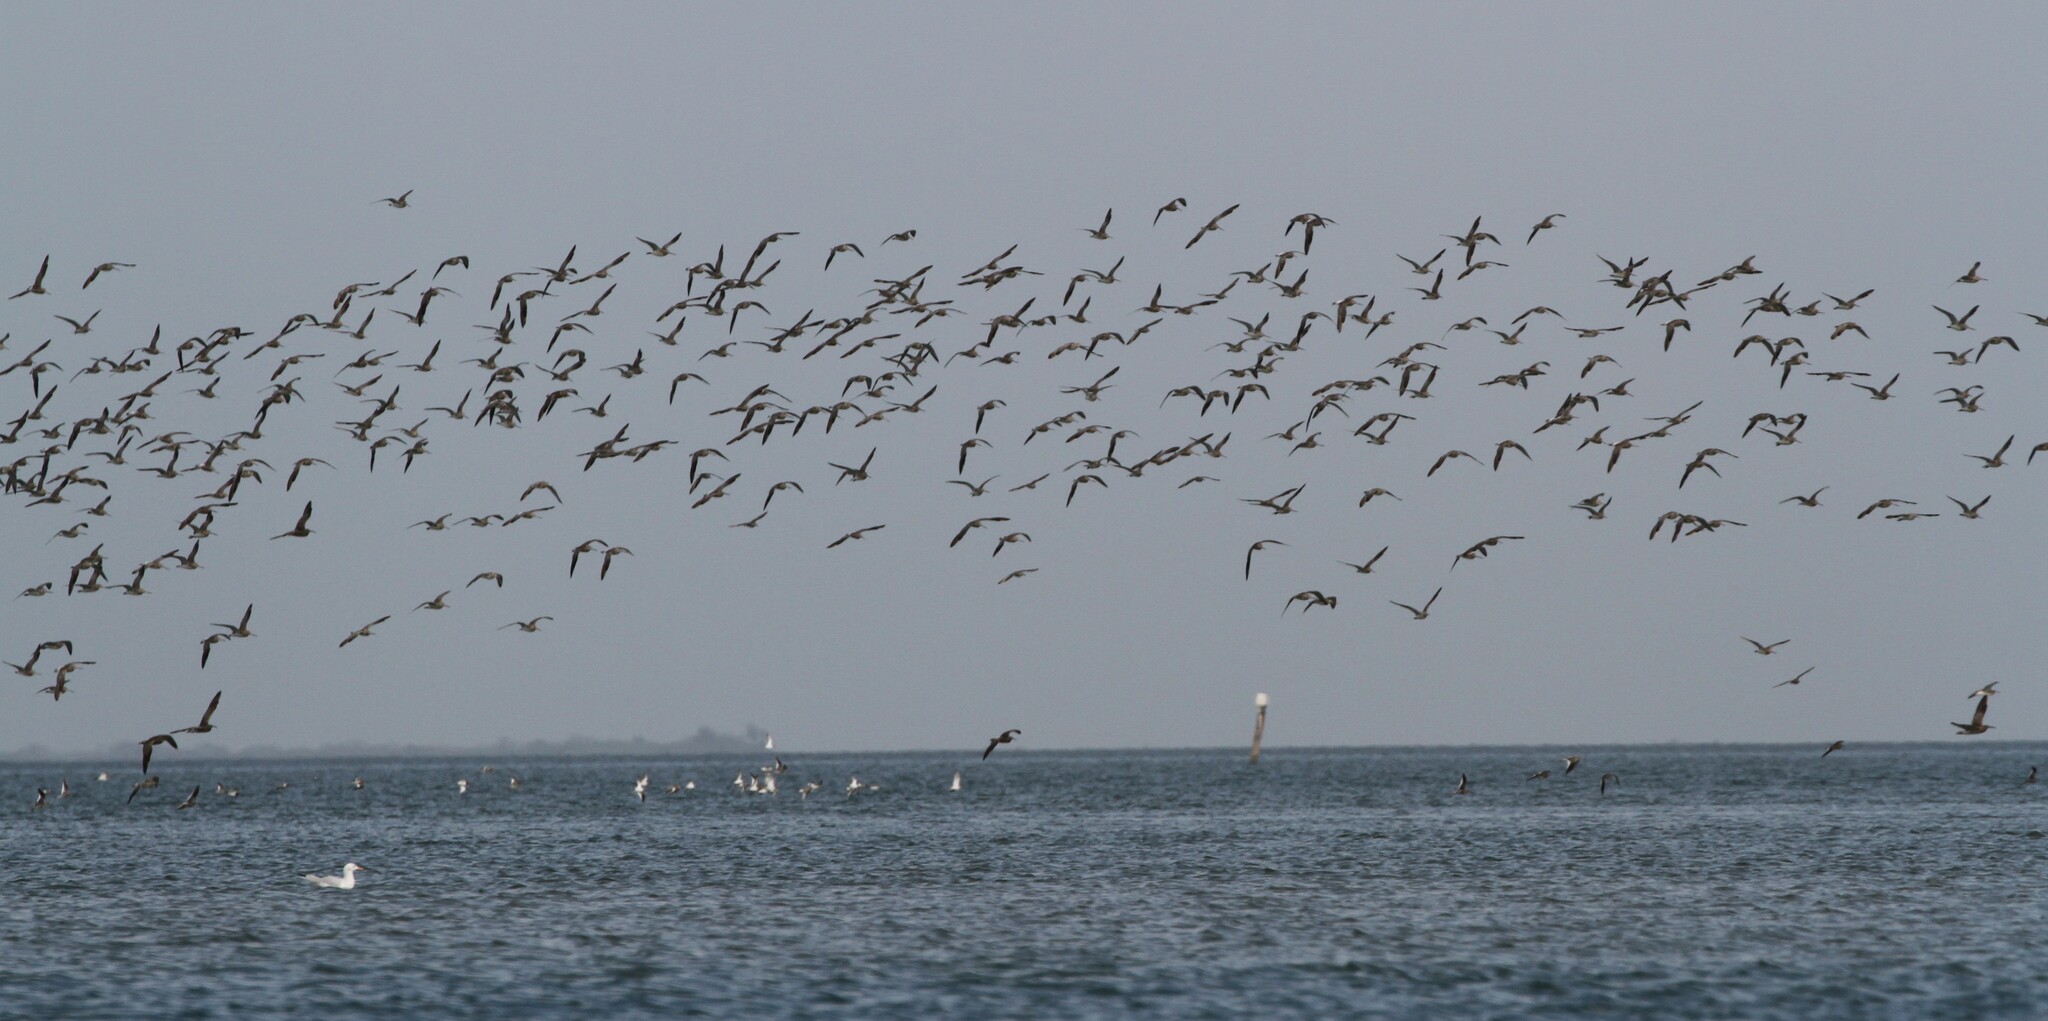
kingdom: Animalia
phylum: Chordata
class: Aves
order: Charadriiformes
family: Scolopacidae
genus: Limosa
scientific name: Limosa lapponica
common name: Bar-tailed godwit
